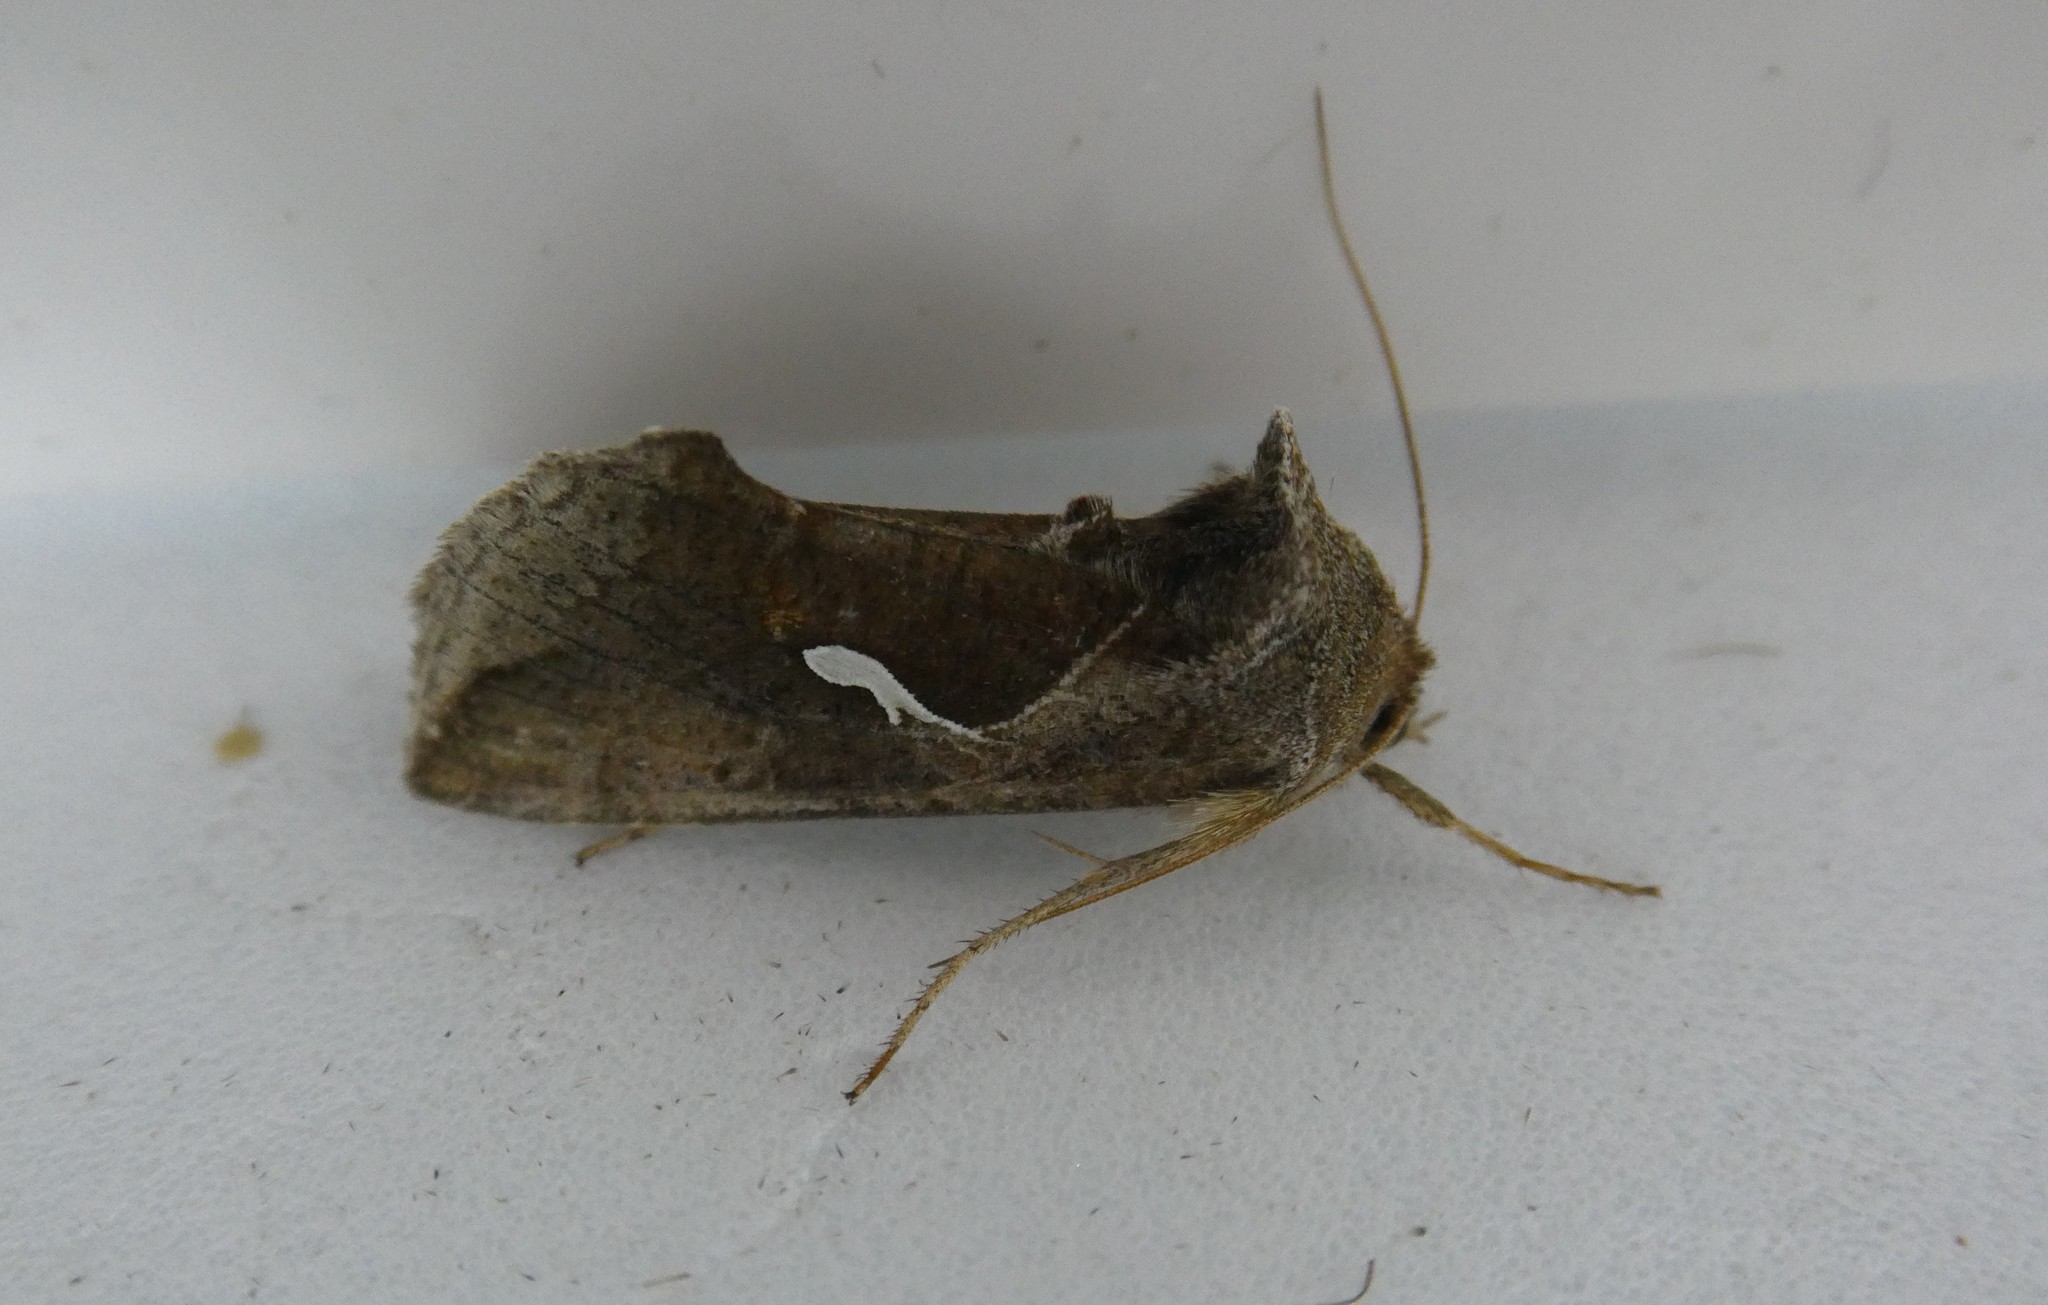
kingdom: Animalia
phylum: Arthropoda
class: Insecta
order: Lepidoptera
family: Noctuidae
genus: Anagrapha
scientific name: Anagrapha falcifera
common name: Celery looper
